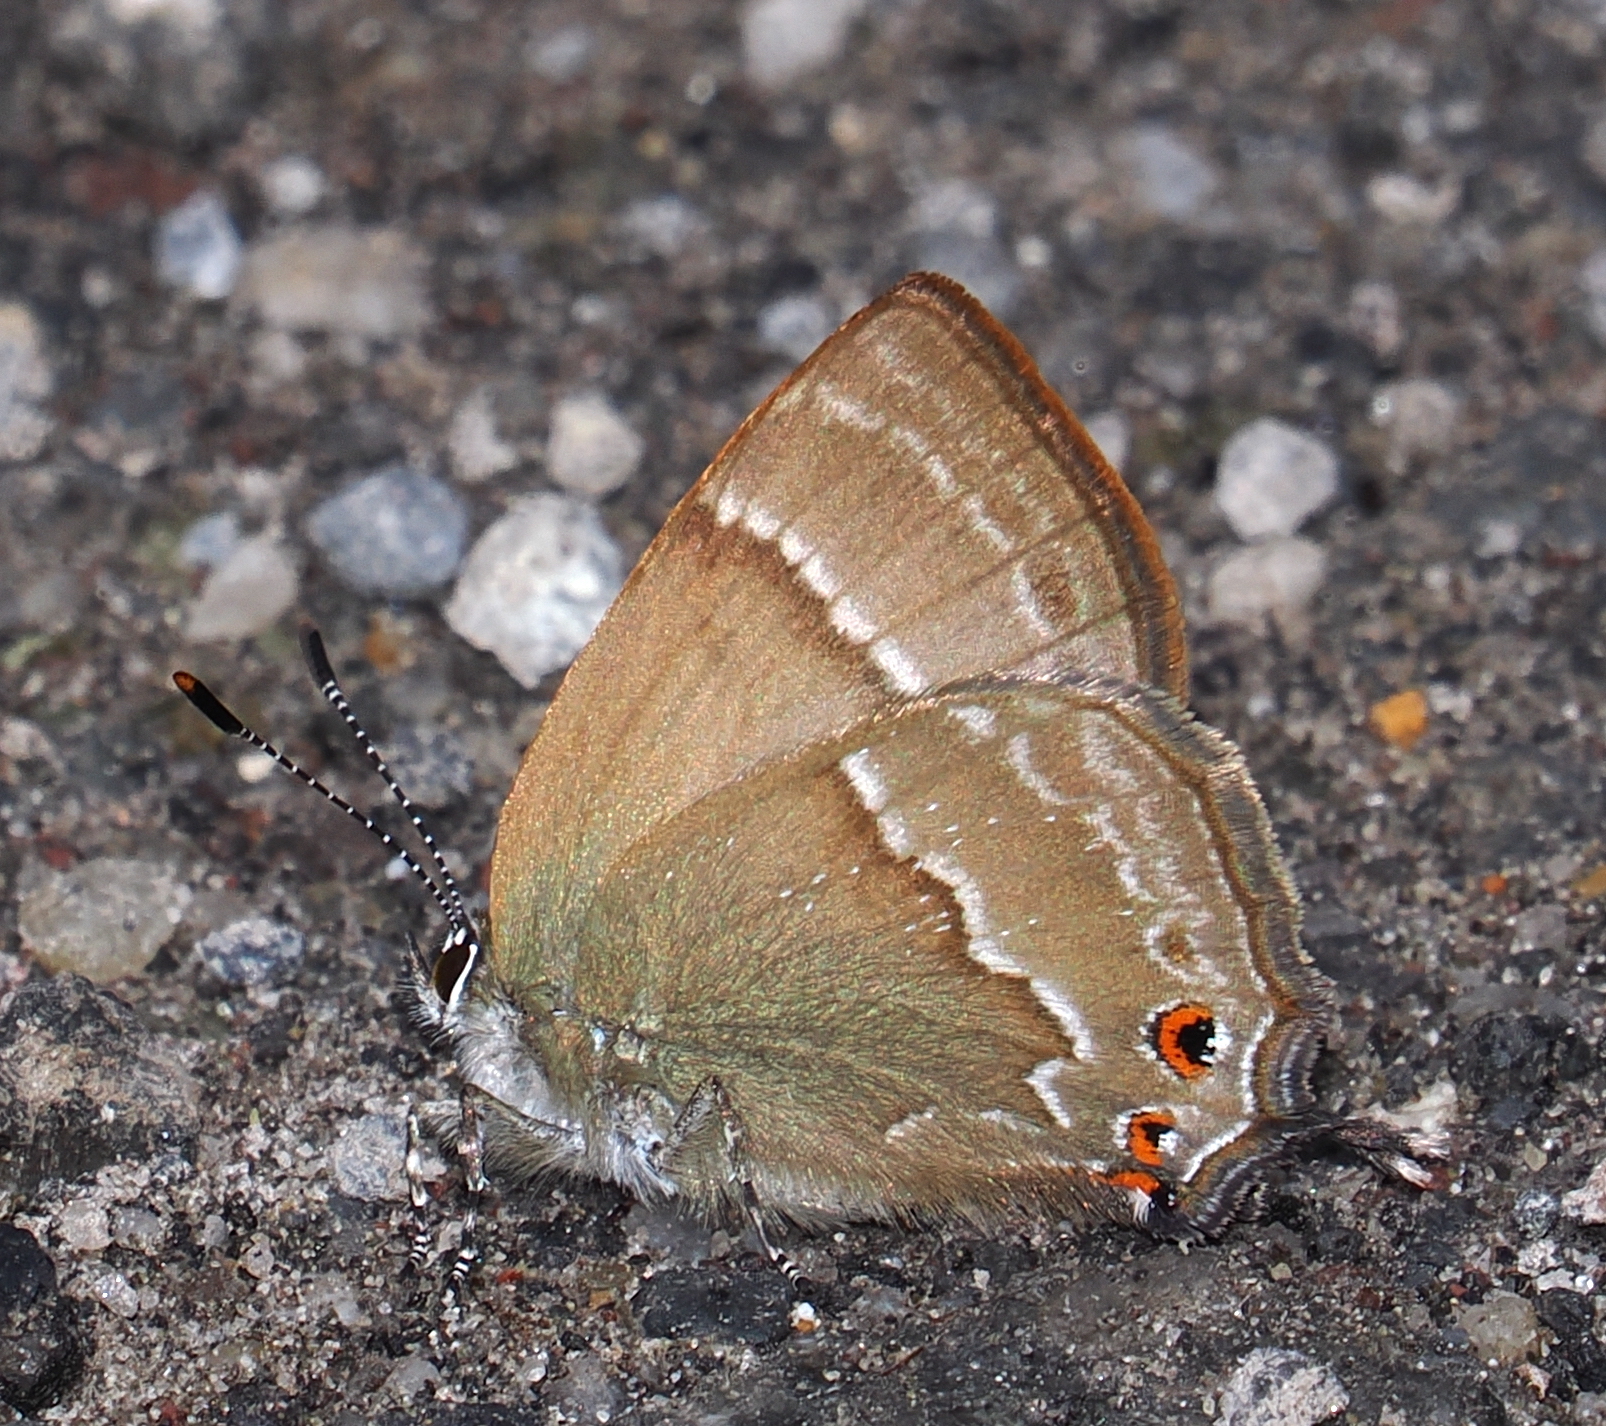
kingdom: Animalia
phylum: Arthropoda
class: Insecta
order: Lepidoptera
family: Lycaenidae
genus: Podanotum
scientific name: Podanotum vanewrighti
